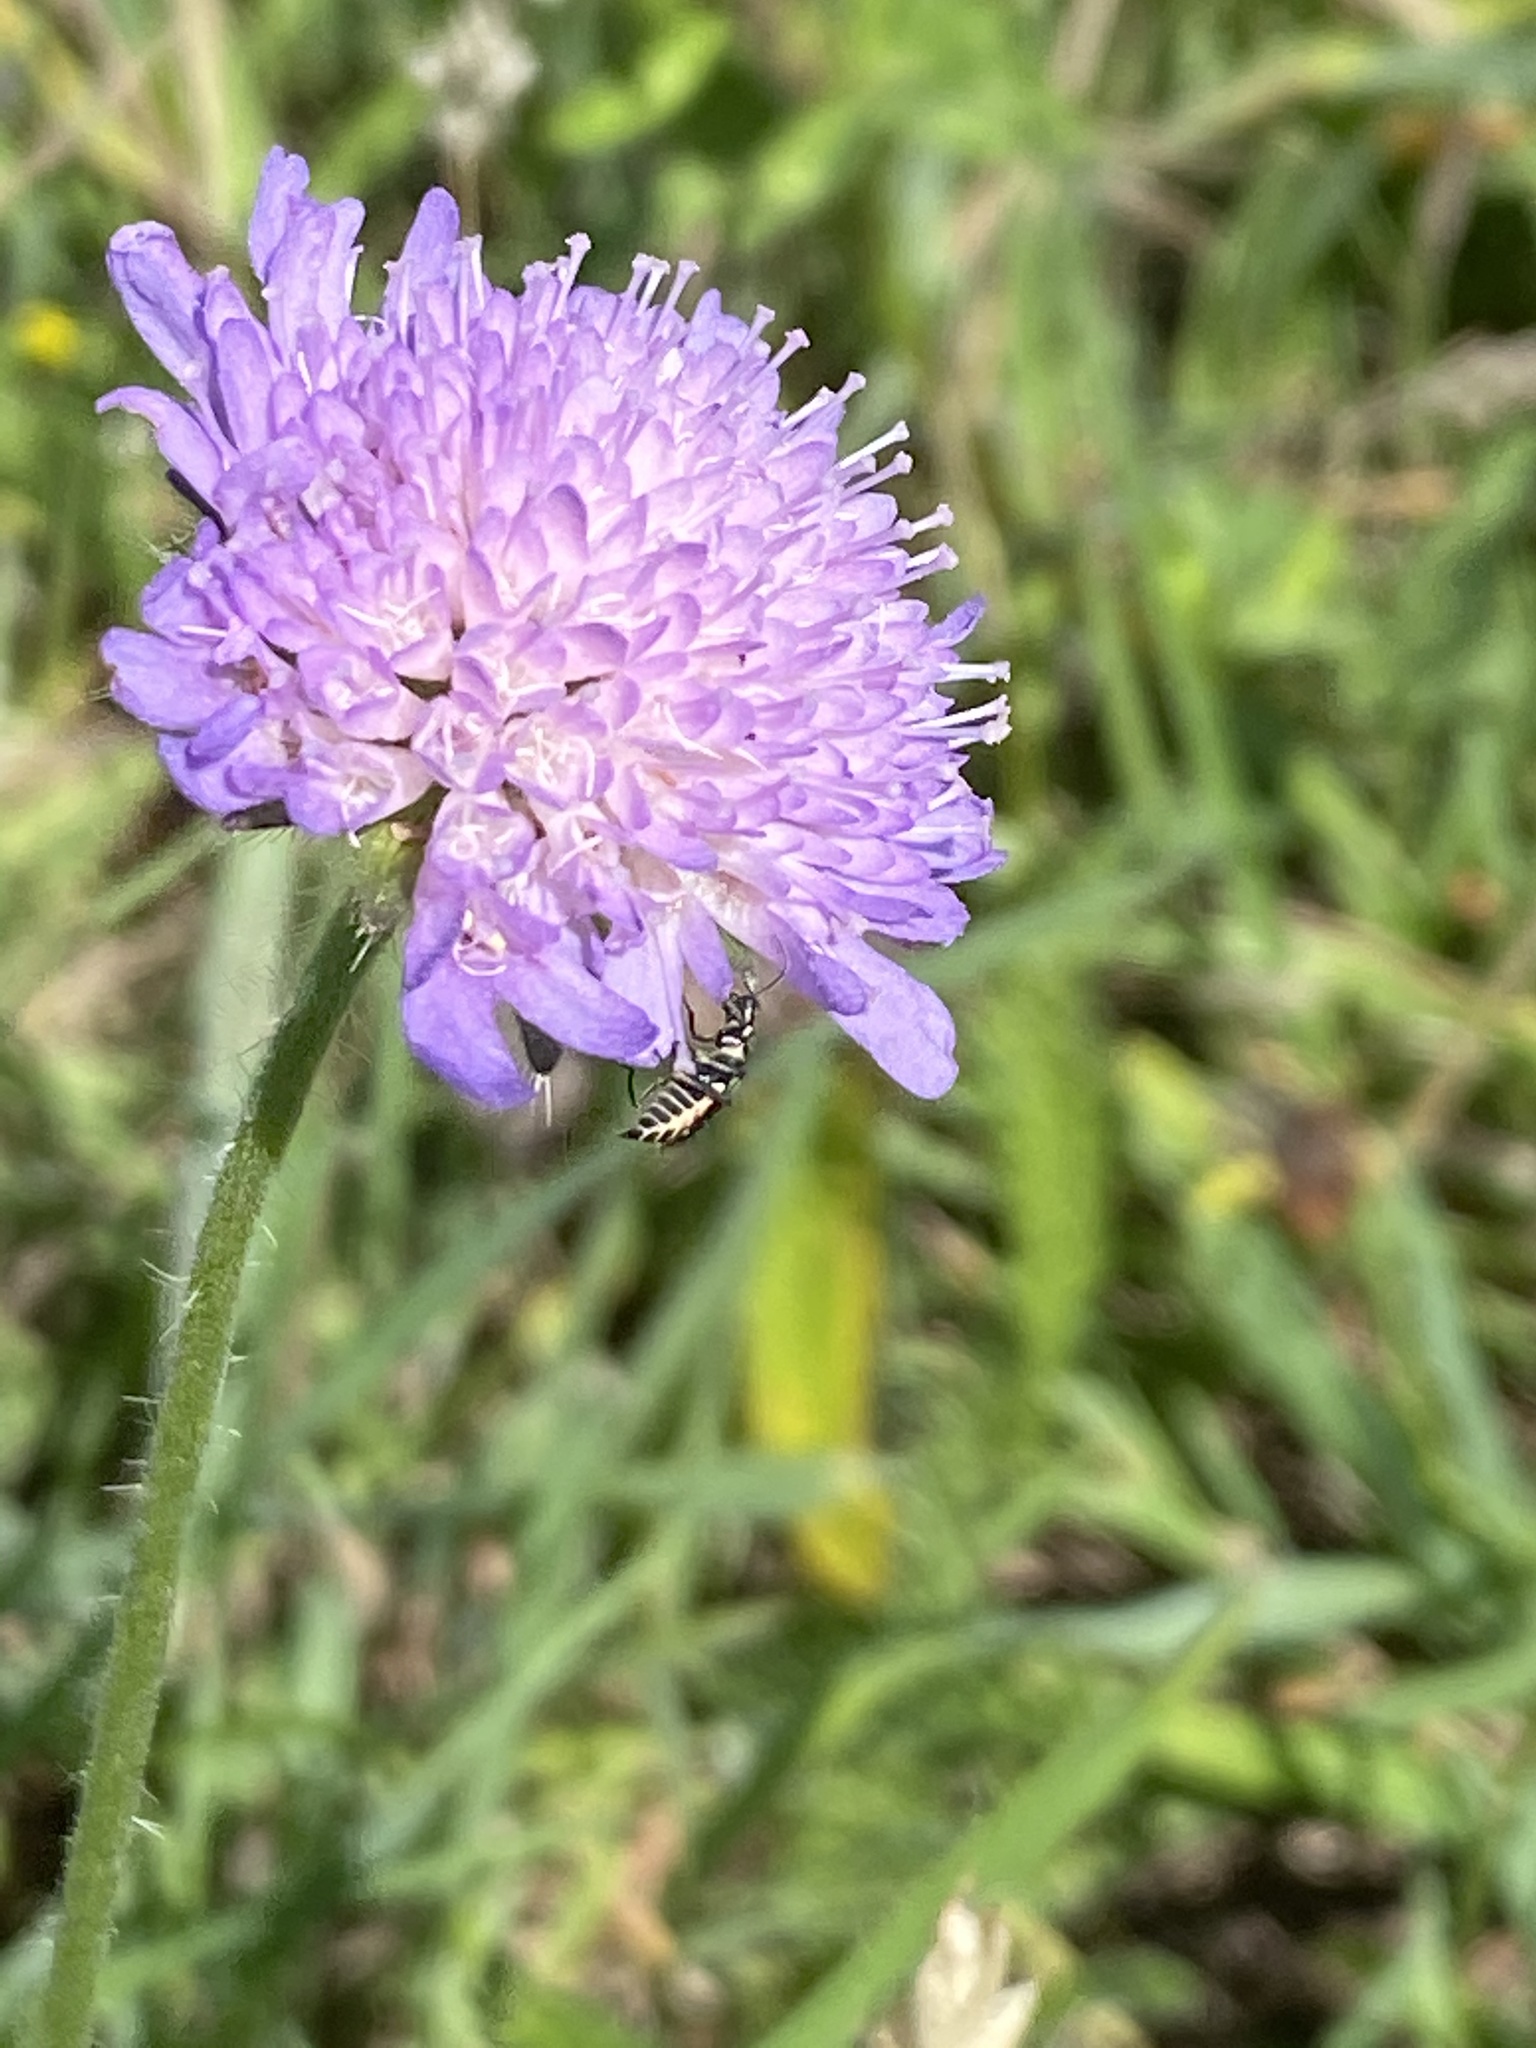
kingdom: Plantae
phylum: Tracheophyta
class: Magnoliopsida
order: Dipsacales
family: Caprifoliaceae
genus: Knautia
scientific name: Knautia arvensis
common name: Field scabiosa
